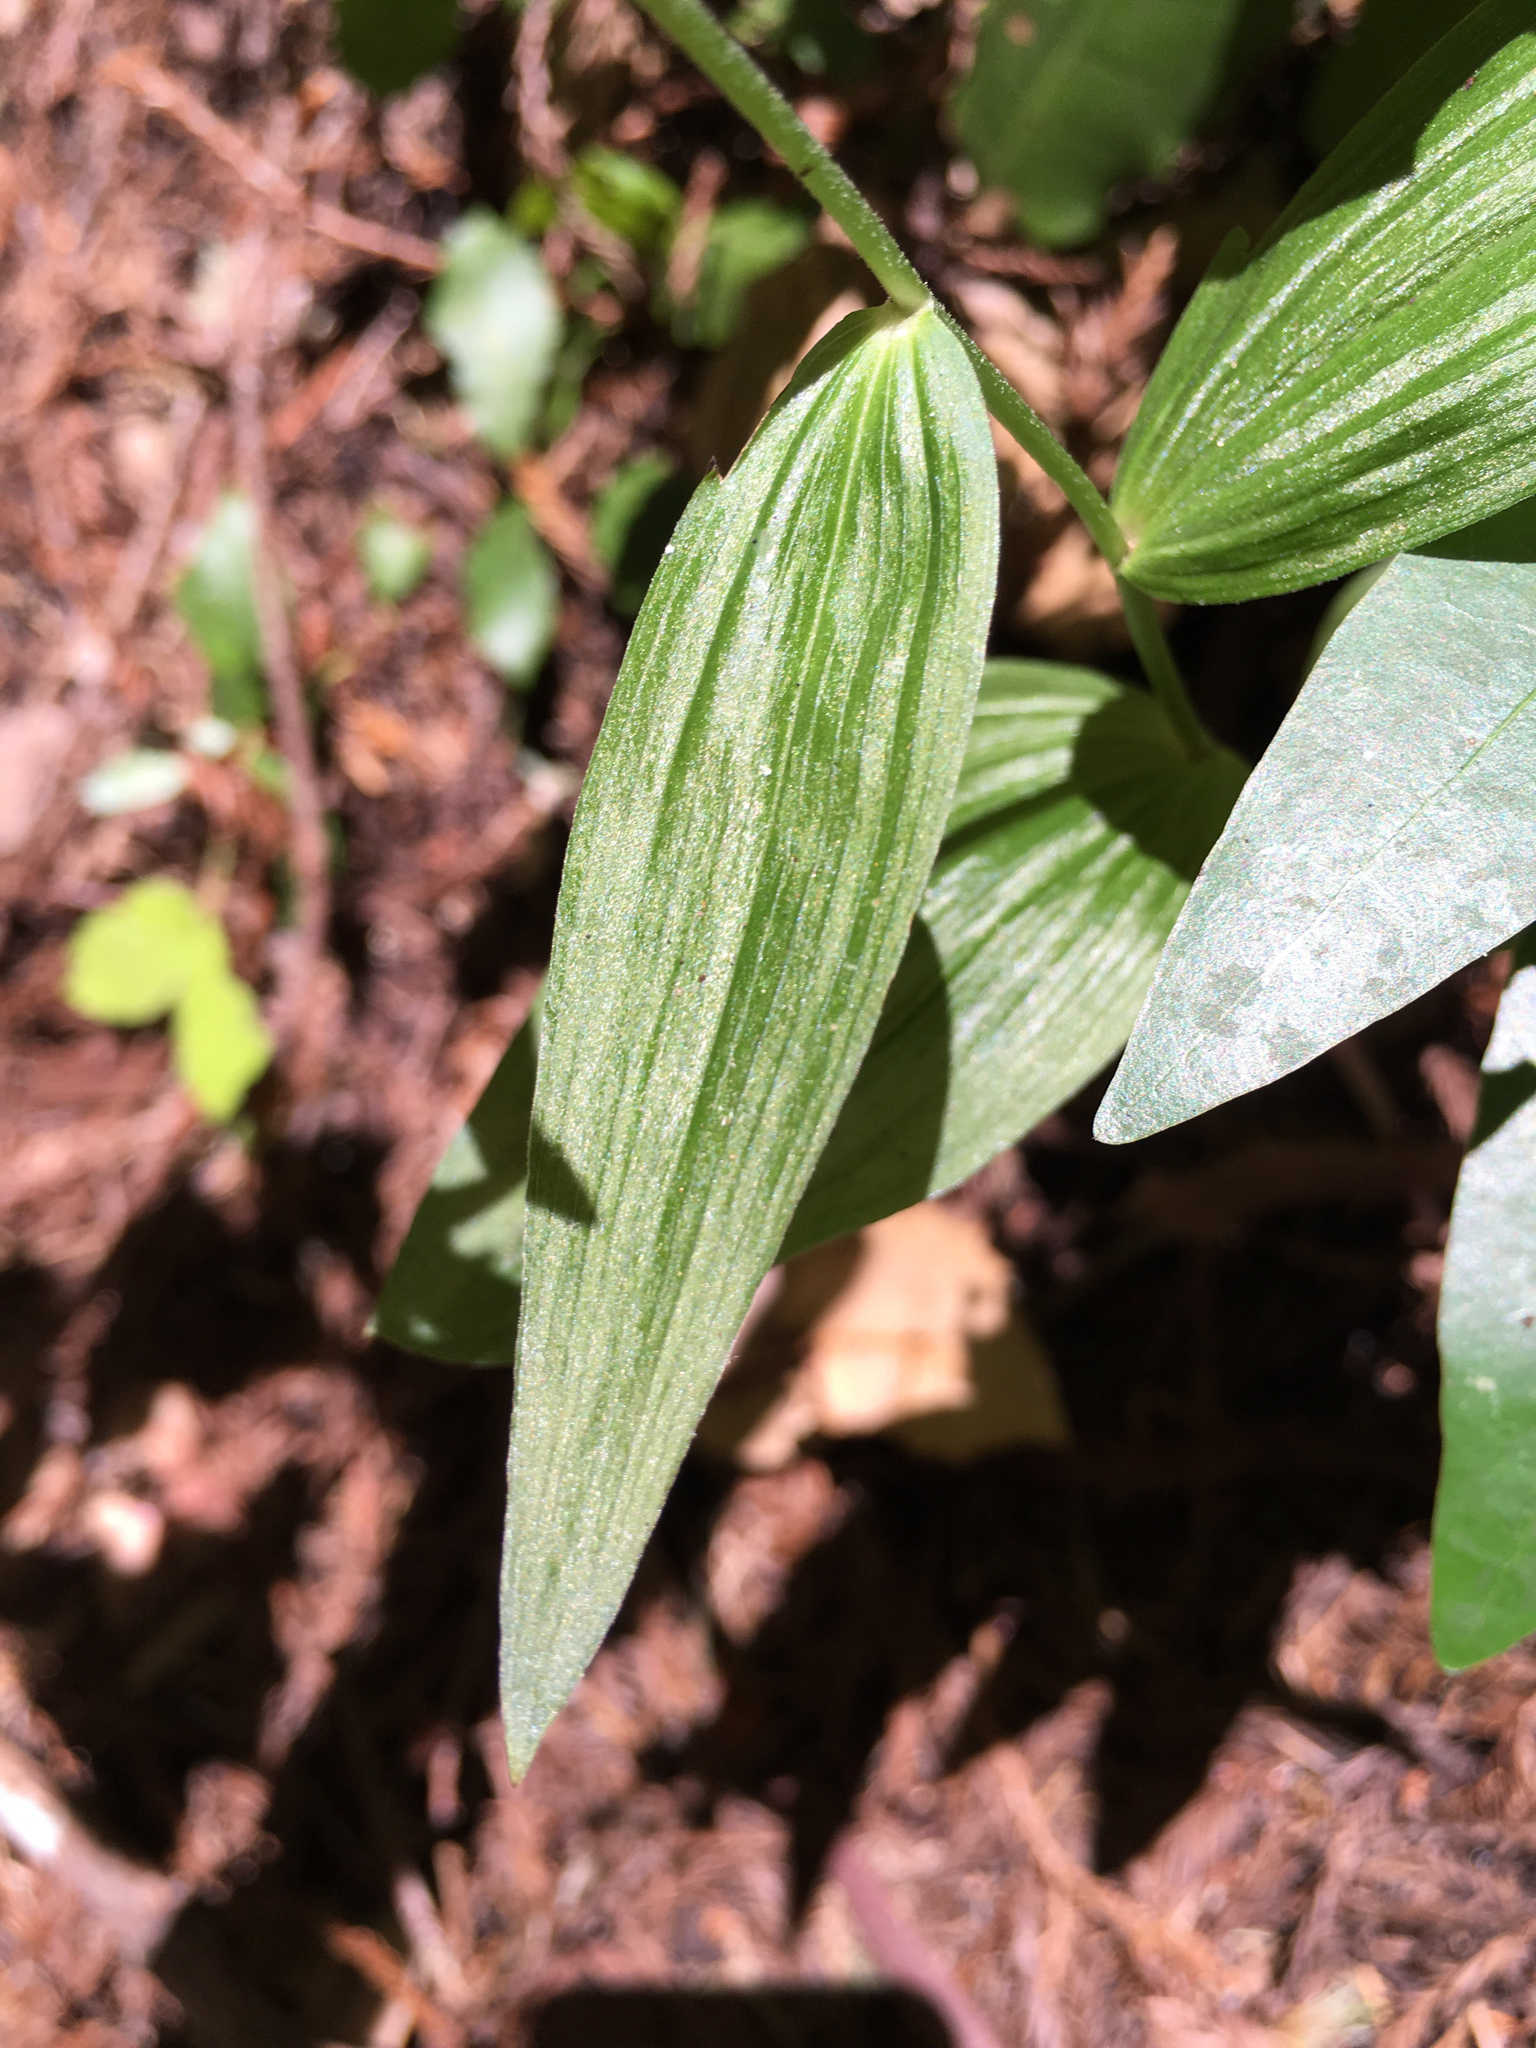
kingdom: Plantae
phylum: Tracheophyta
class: Liliopsida
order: Asparagales
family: Orchidaceae
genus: Epipactis
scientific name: Epipactis helleborine
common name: Broad-leaved helleborine
